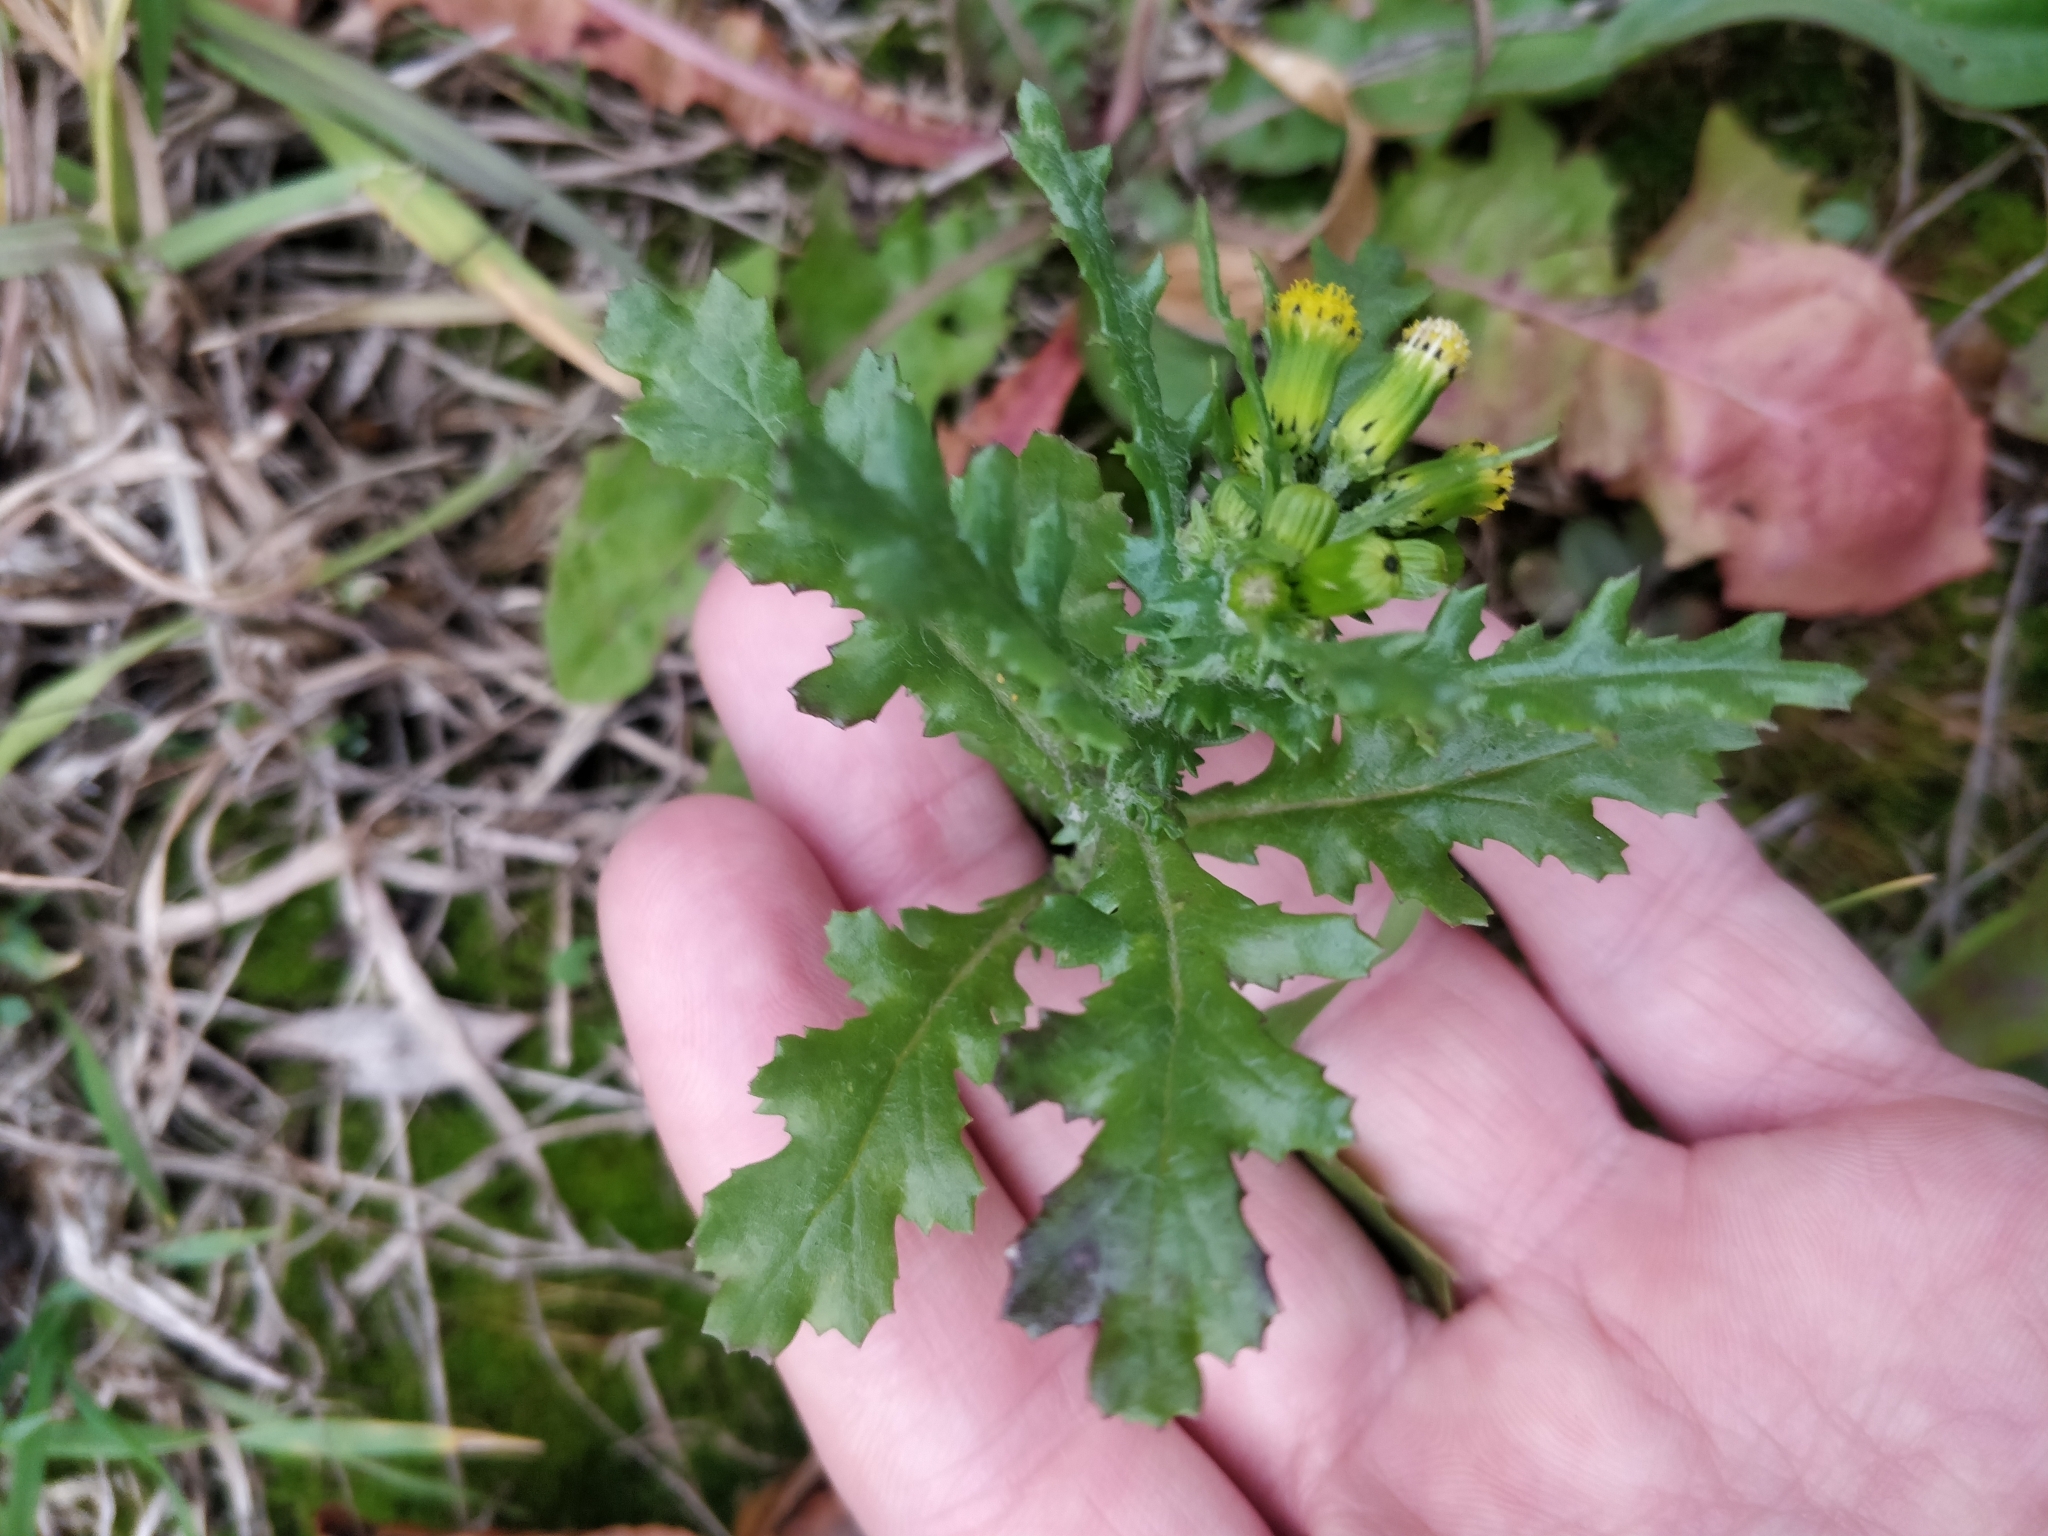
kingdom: Plantae
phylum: Tracheophyta
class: Magnoliopsida
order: Asterales
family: Asteraceae
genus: Senecio
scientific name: Senecio vulgaris
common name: Old-man-in-the-spring
